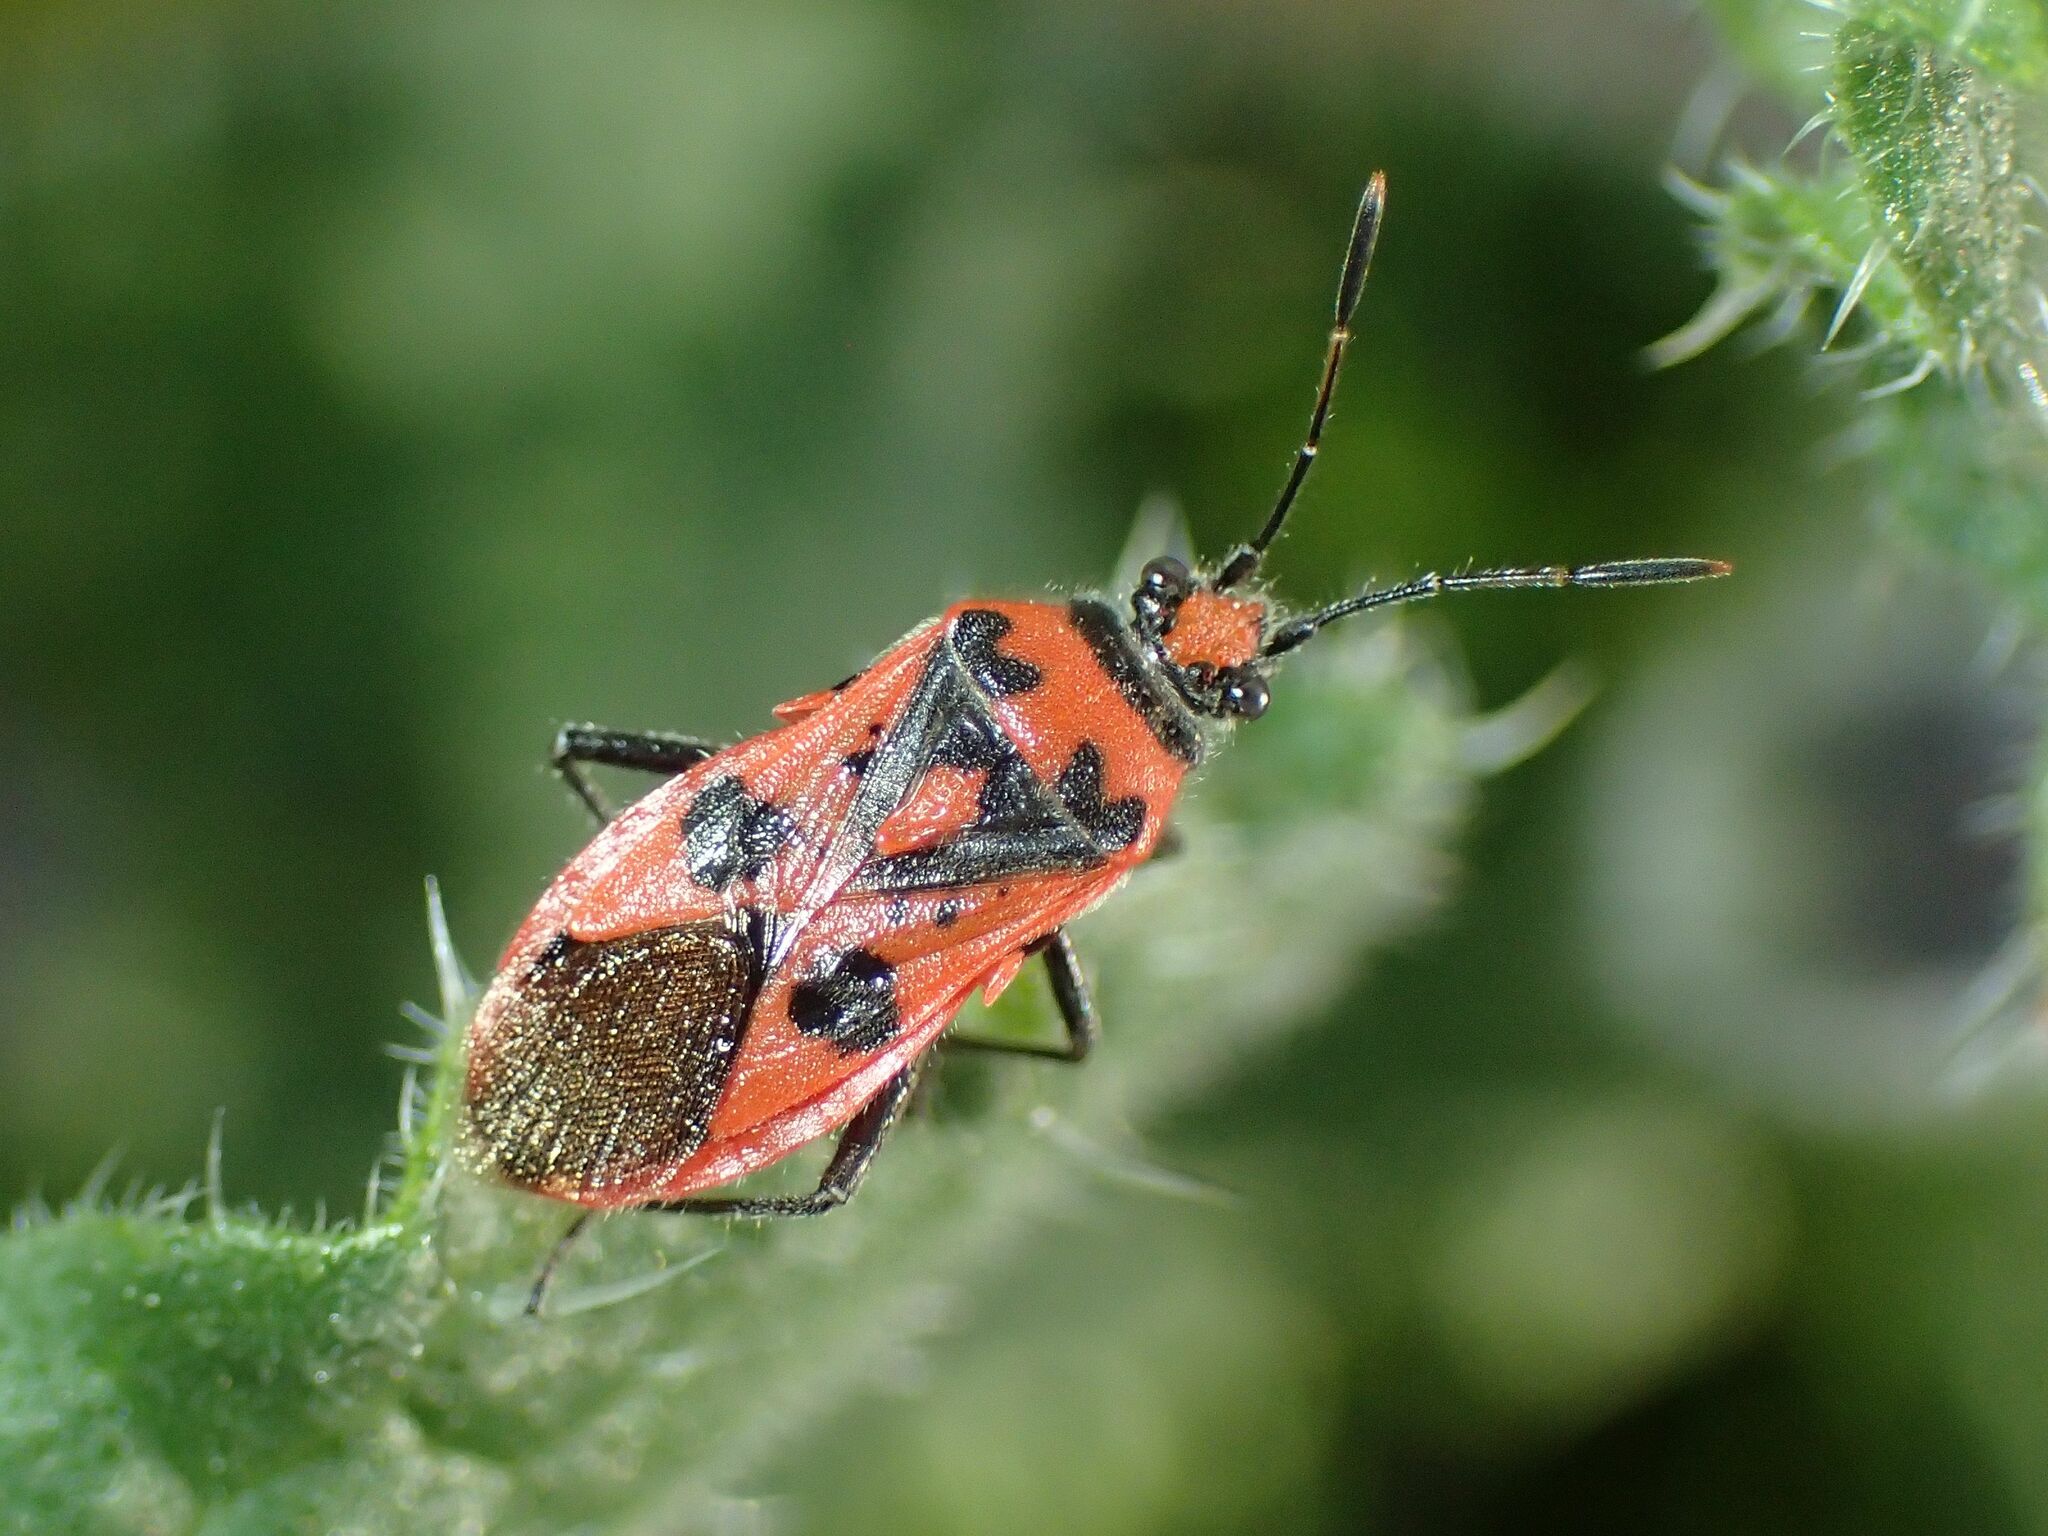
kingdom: Animalia
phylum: Arthropoda
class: Insecta
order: Hemiptera
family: Rhopalidae
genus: Corizus
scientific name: Corizus hyoscyami
